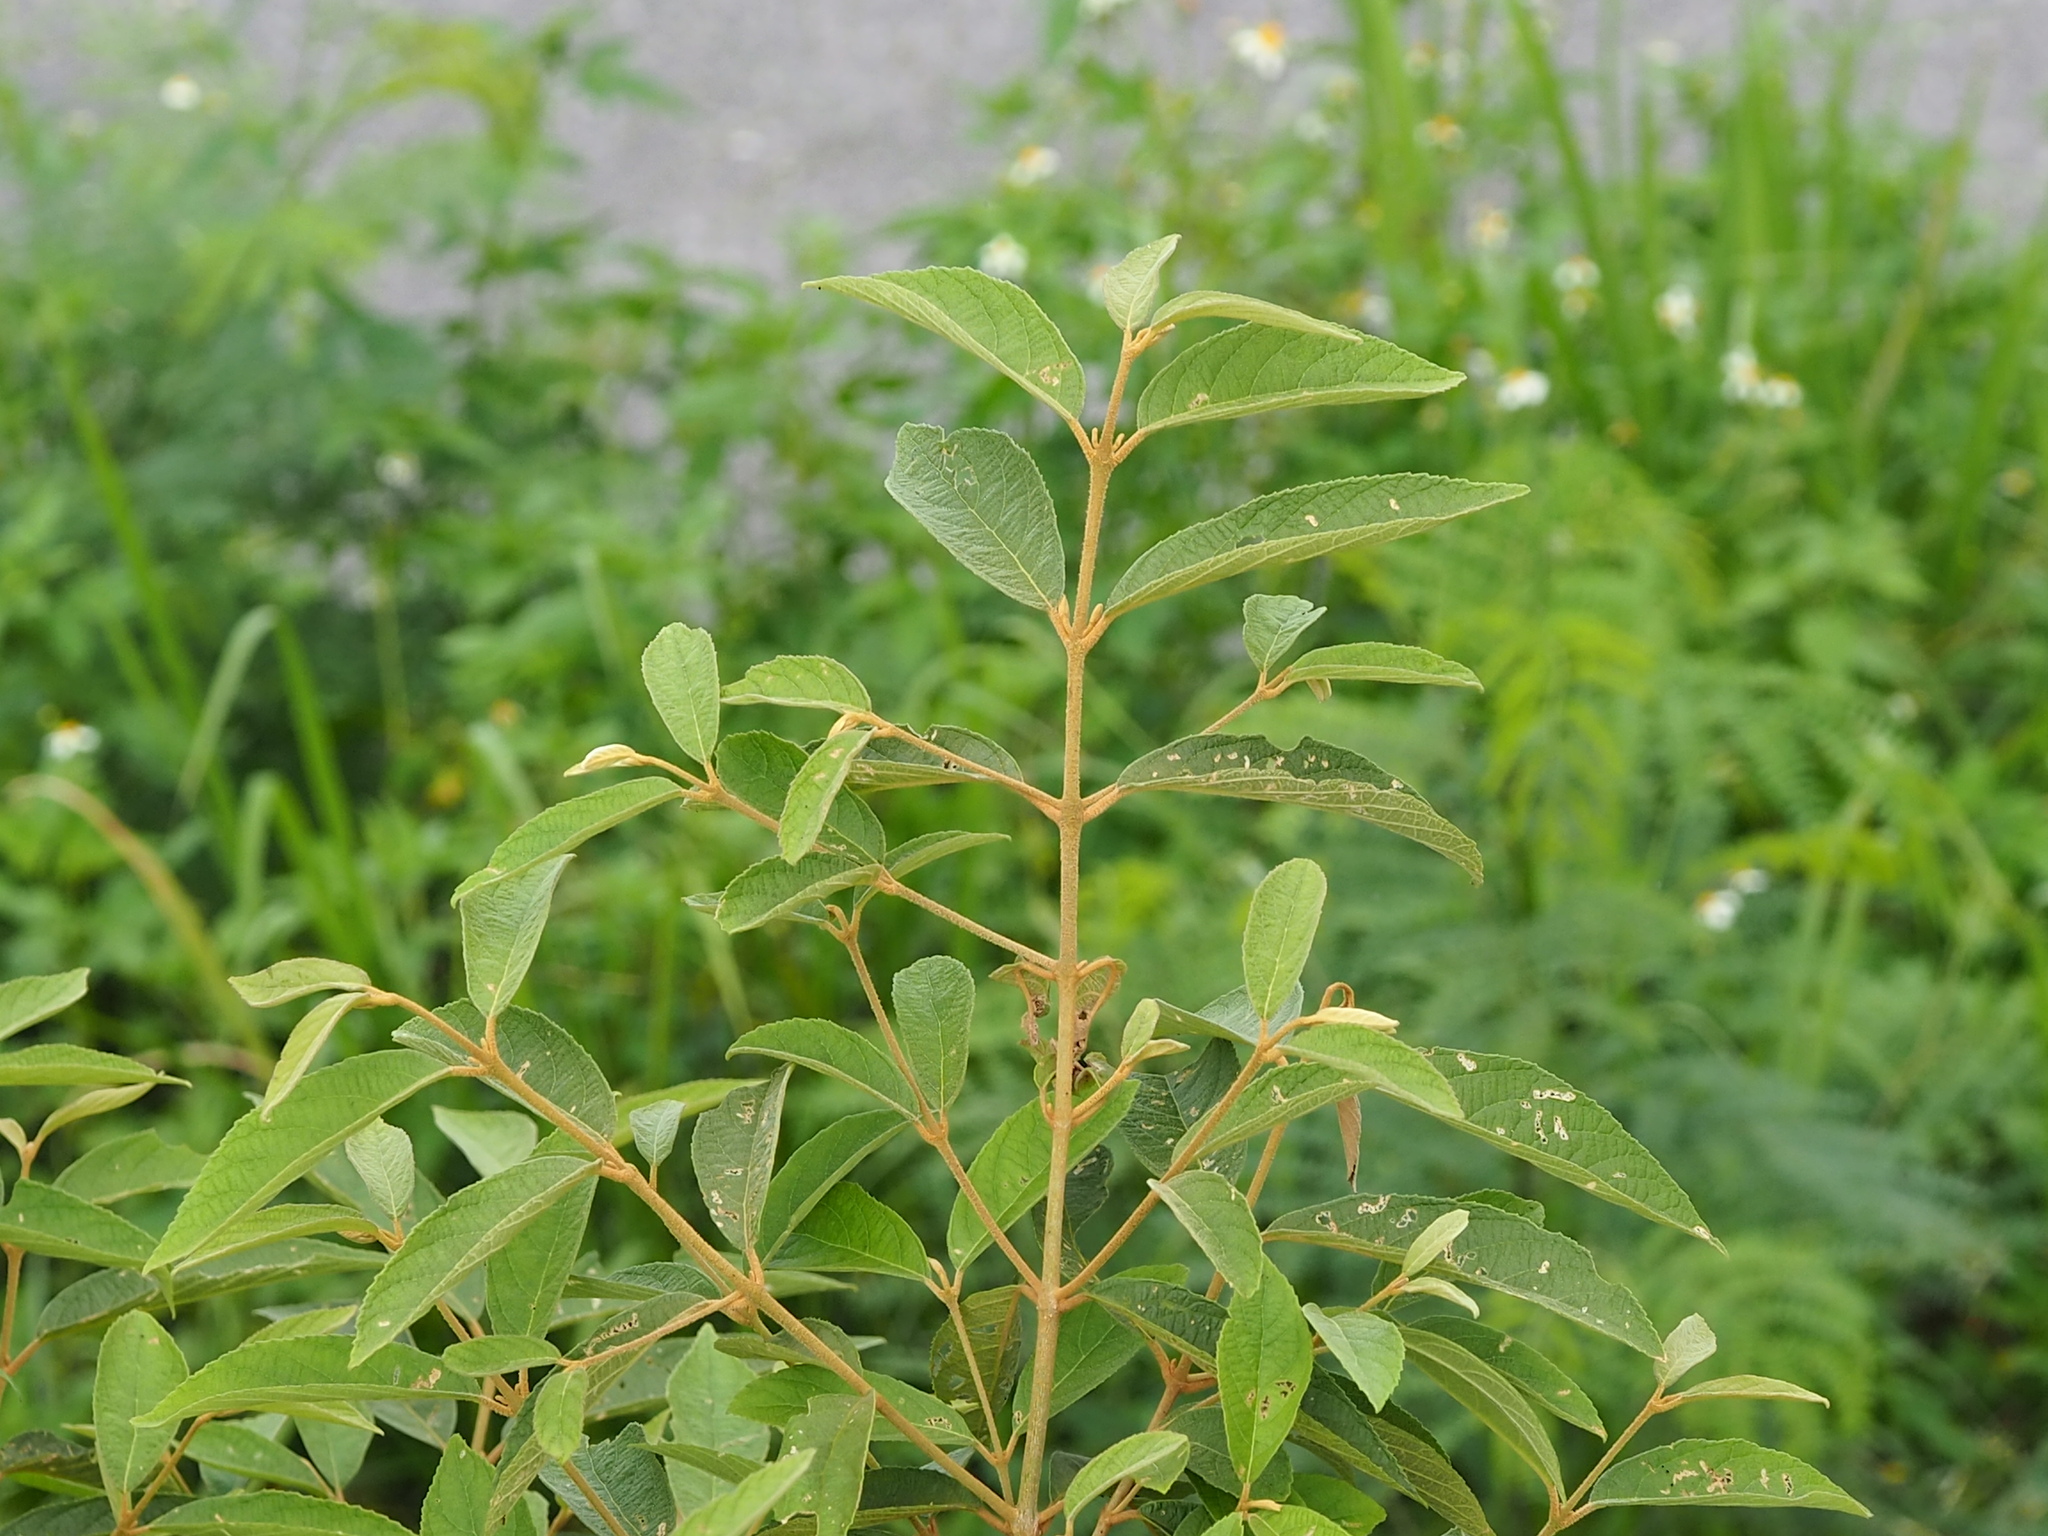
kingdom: Plantae
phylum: Tracheophyta
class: Magnoliopsida
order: Lamiales
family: Lamiaceae
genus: Callicarpa
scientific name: Callicarpa pedunculata
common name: Velvetleaf
